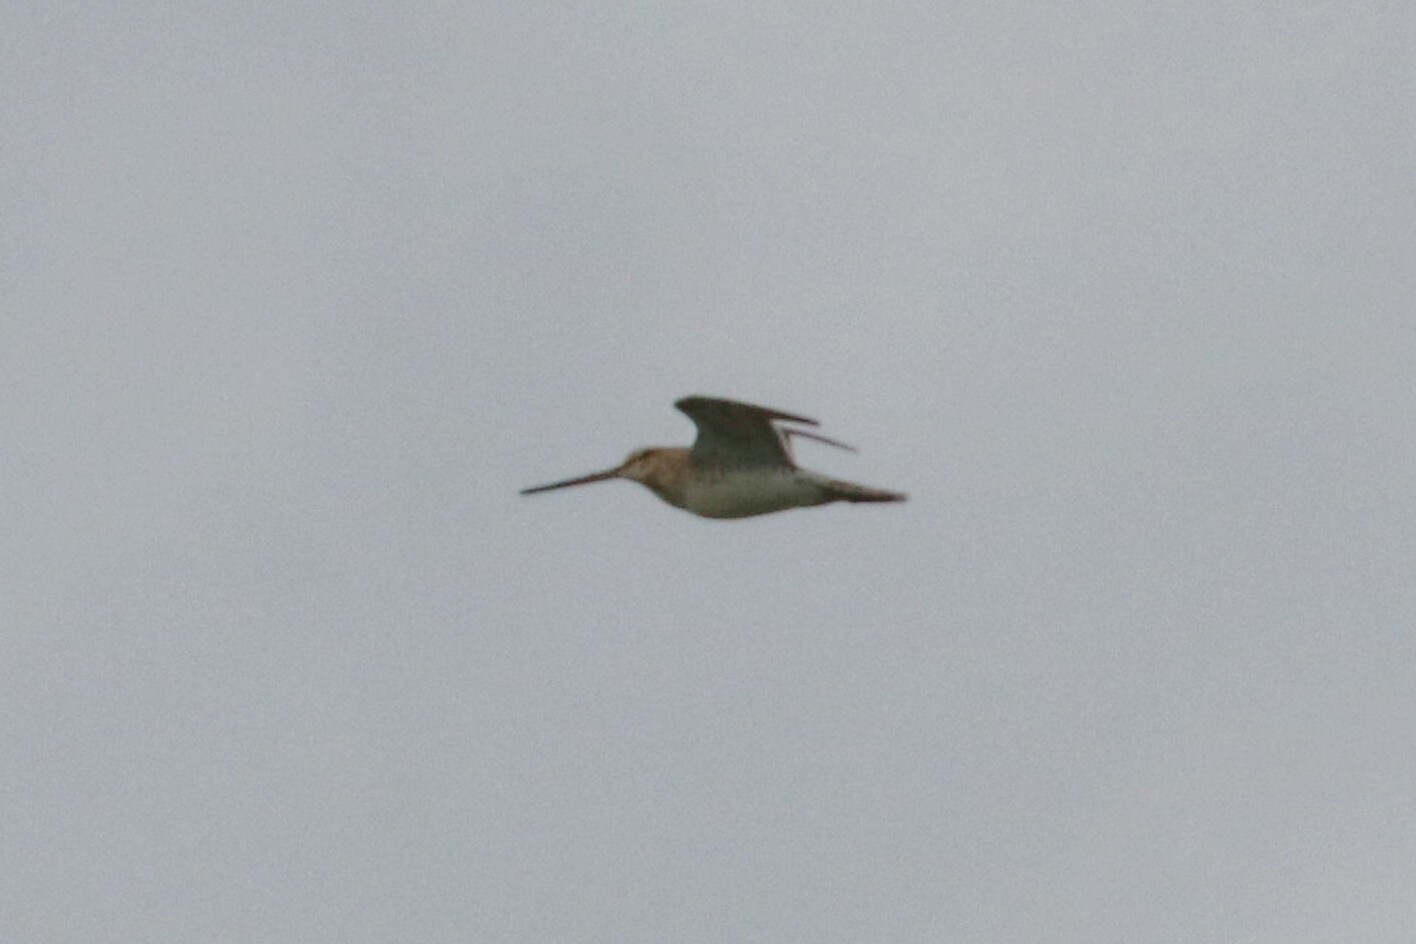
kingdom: Animalia
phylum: Chordata
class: Aves
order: Charadriiformes
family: Scolopacidae
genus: Gallinago
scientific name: Gallinago gallinago
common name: Common snipe
